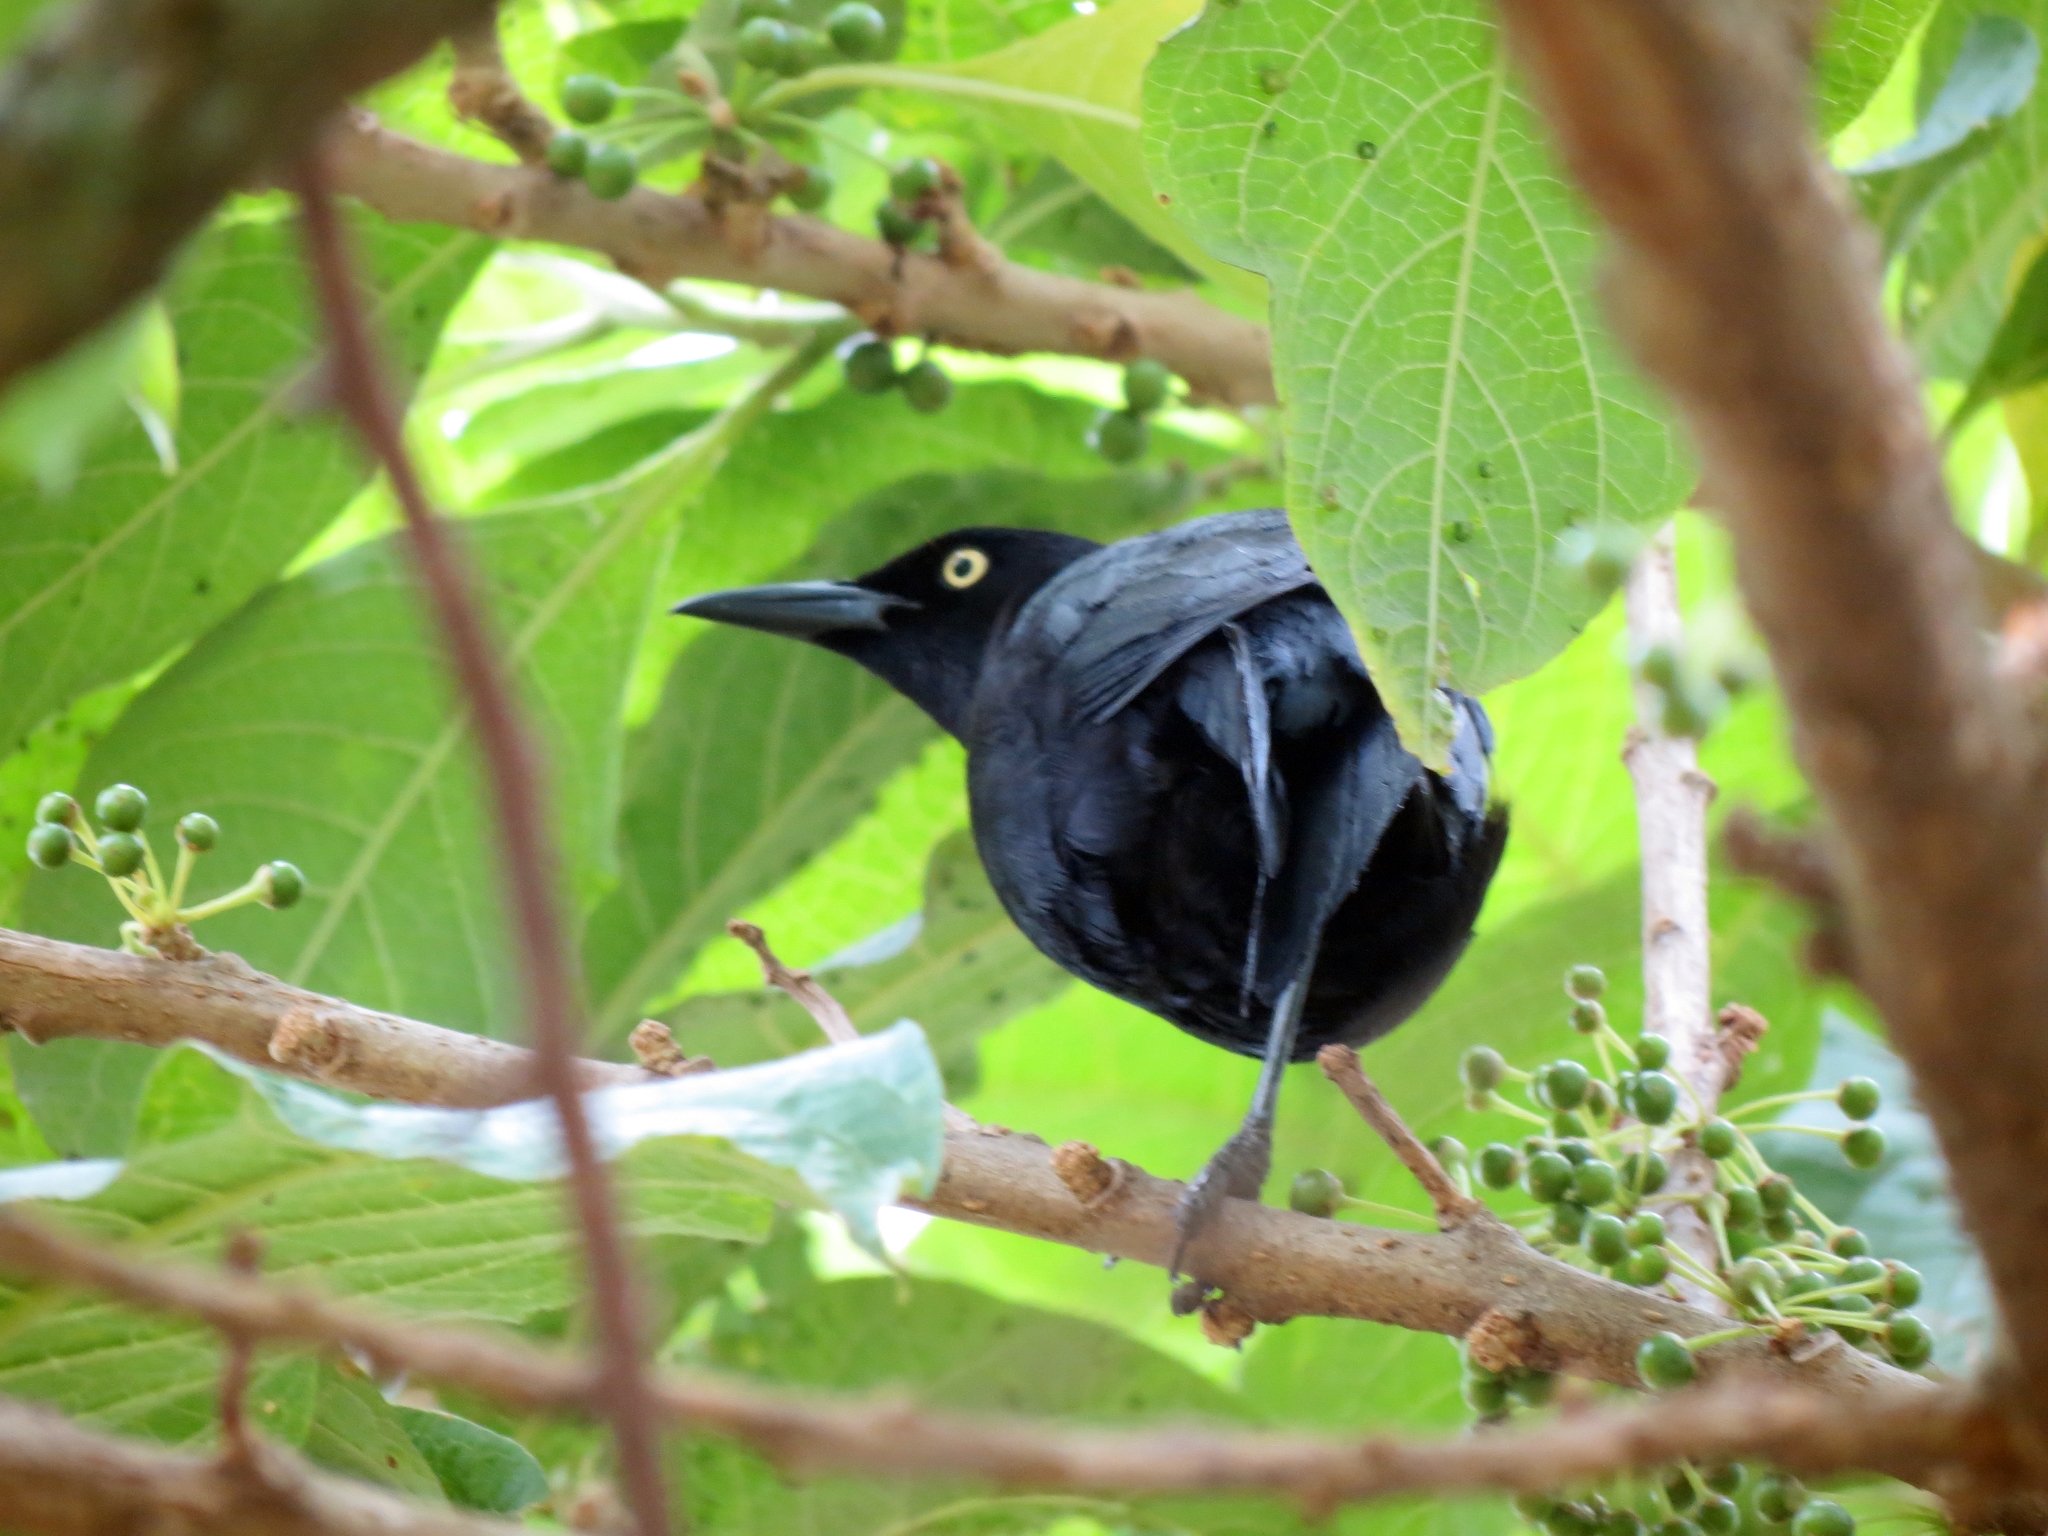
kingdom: Animalia
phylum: Chordata
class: Aves
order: Passeriformes
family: Icteridae
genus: Quiscalus
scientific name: Quiscalus lugubris
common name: Carib grackle
